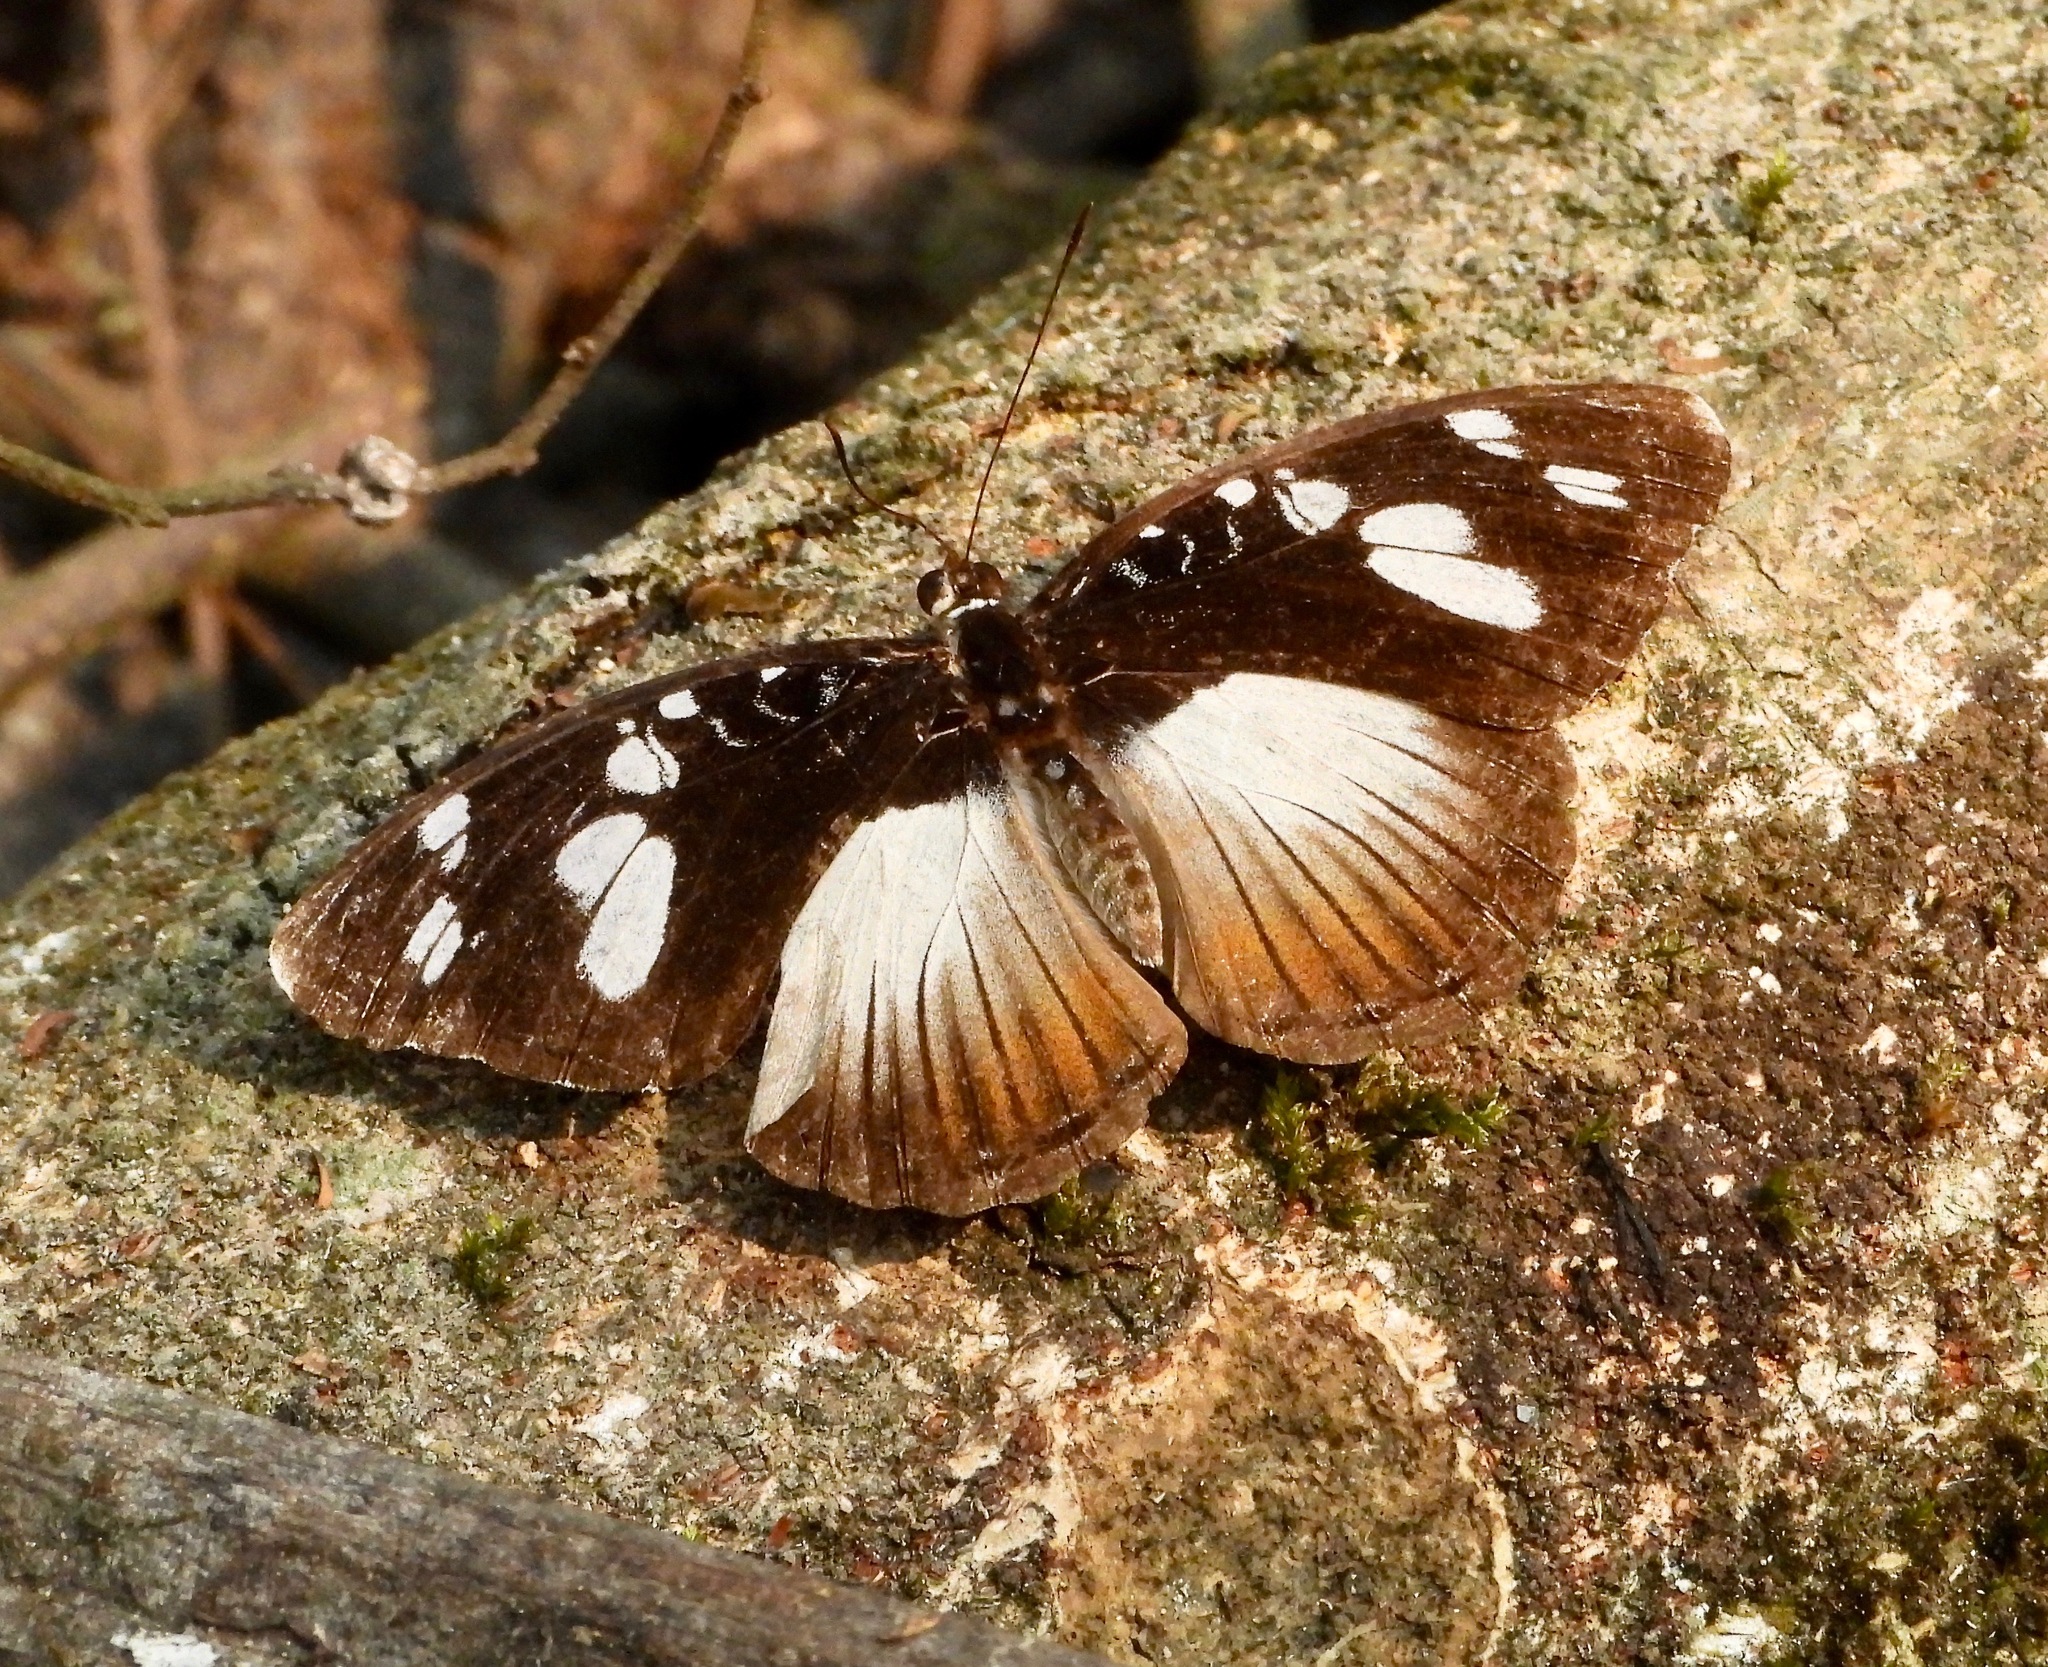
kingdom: Animalia
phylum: Arthropoda
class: Insecta
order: Lepidoptera
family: Nymphalidae
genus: Aterica
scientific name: Aterica galene
